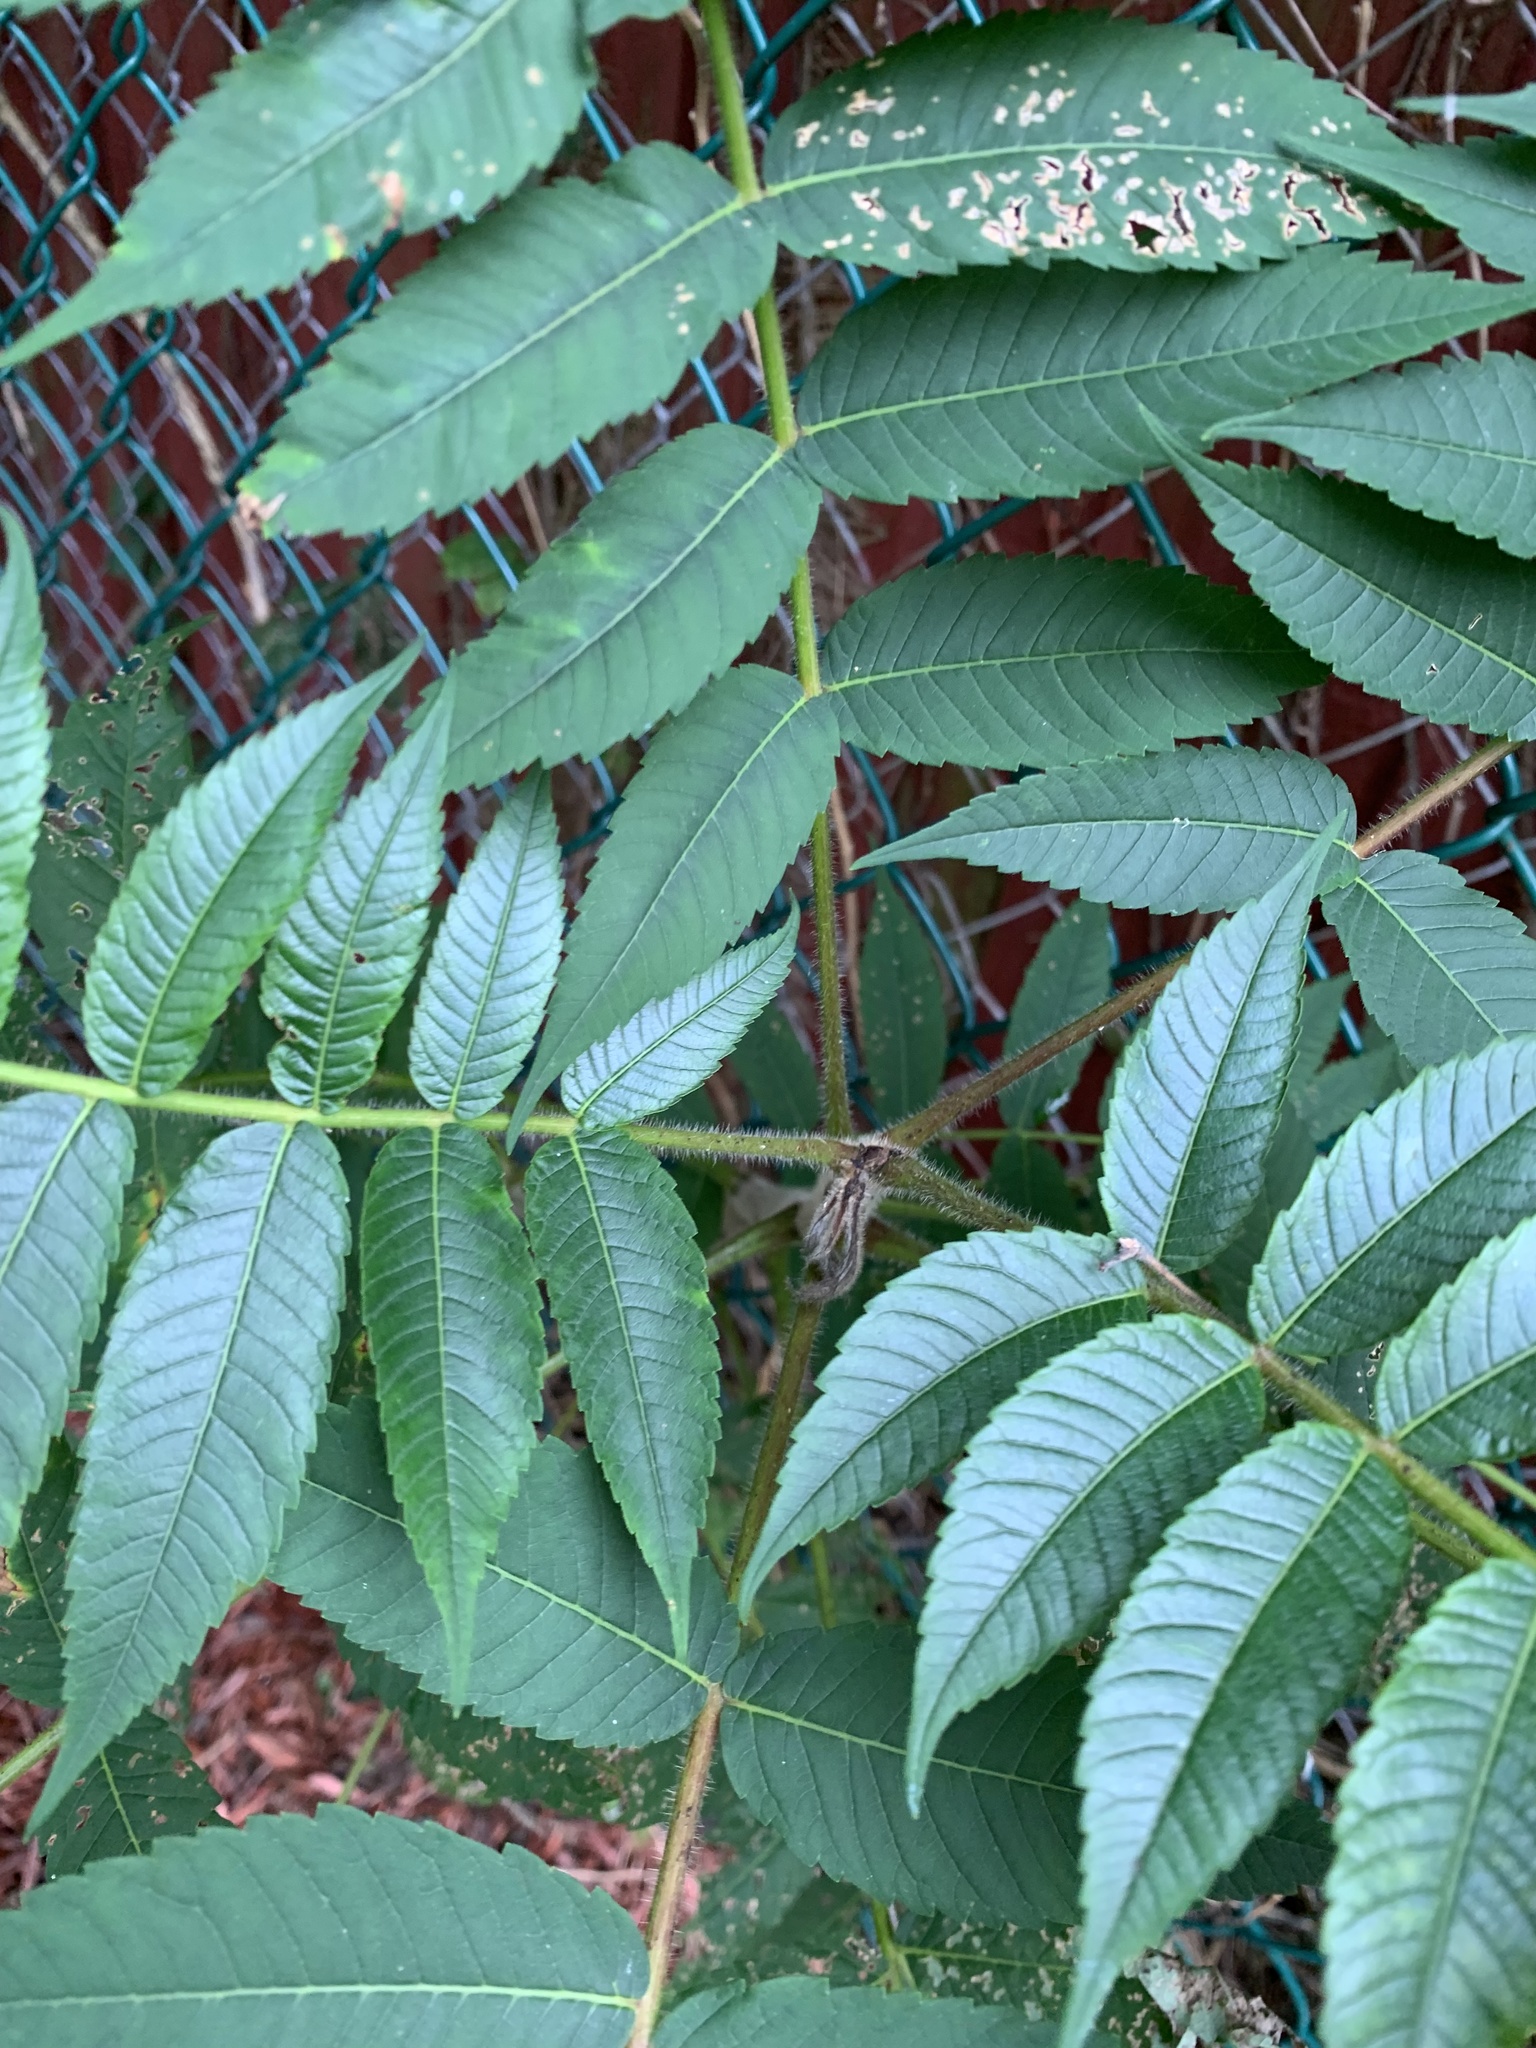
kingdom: Plantae
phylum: Tracheophyta
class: Magnoliopsida
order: Sapindales
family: Anacardiaceae
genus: Rhus
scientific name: Rhus typhina
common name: Staghorn sumac
